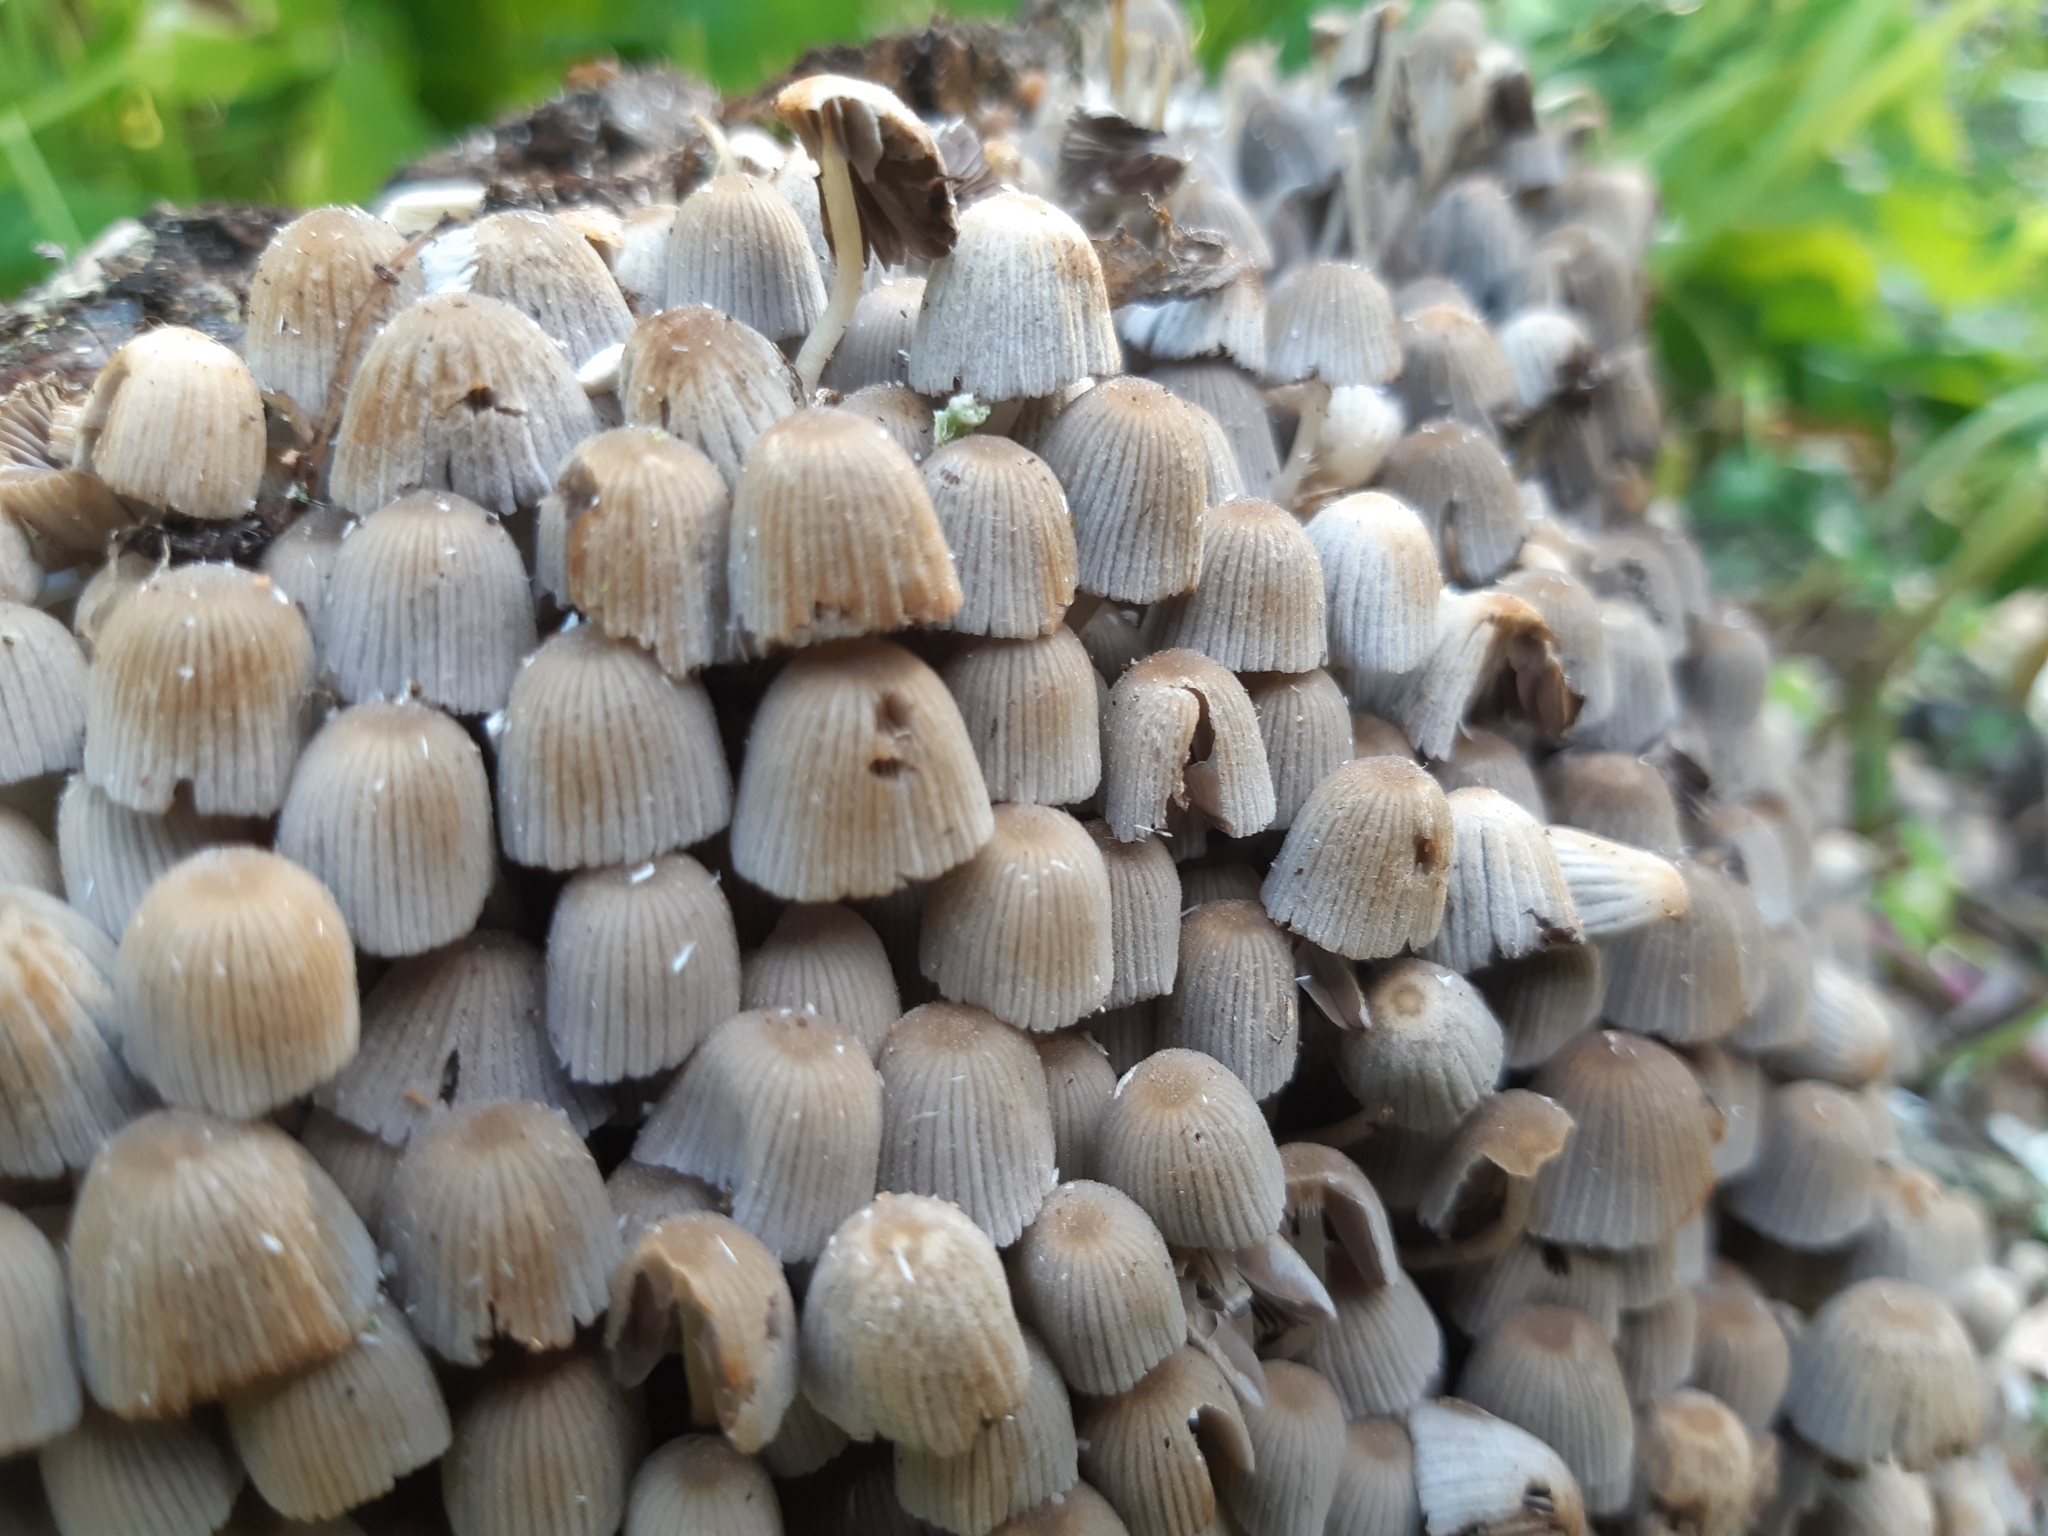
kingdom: Fungi
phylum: Basidiomycota
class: Agaricomycetes
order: Agaricales
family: Psathyrellaceae
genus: Coprinellus
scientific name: Coprinellus disseminatus
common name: Fairies' bonnets
